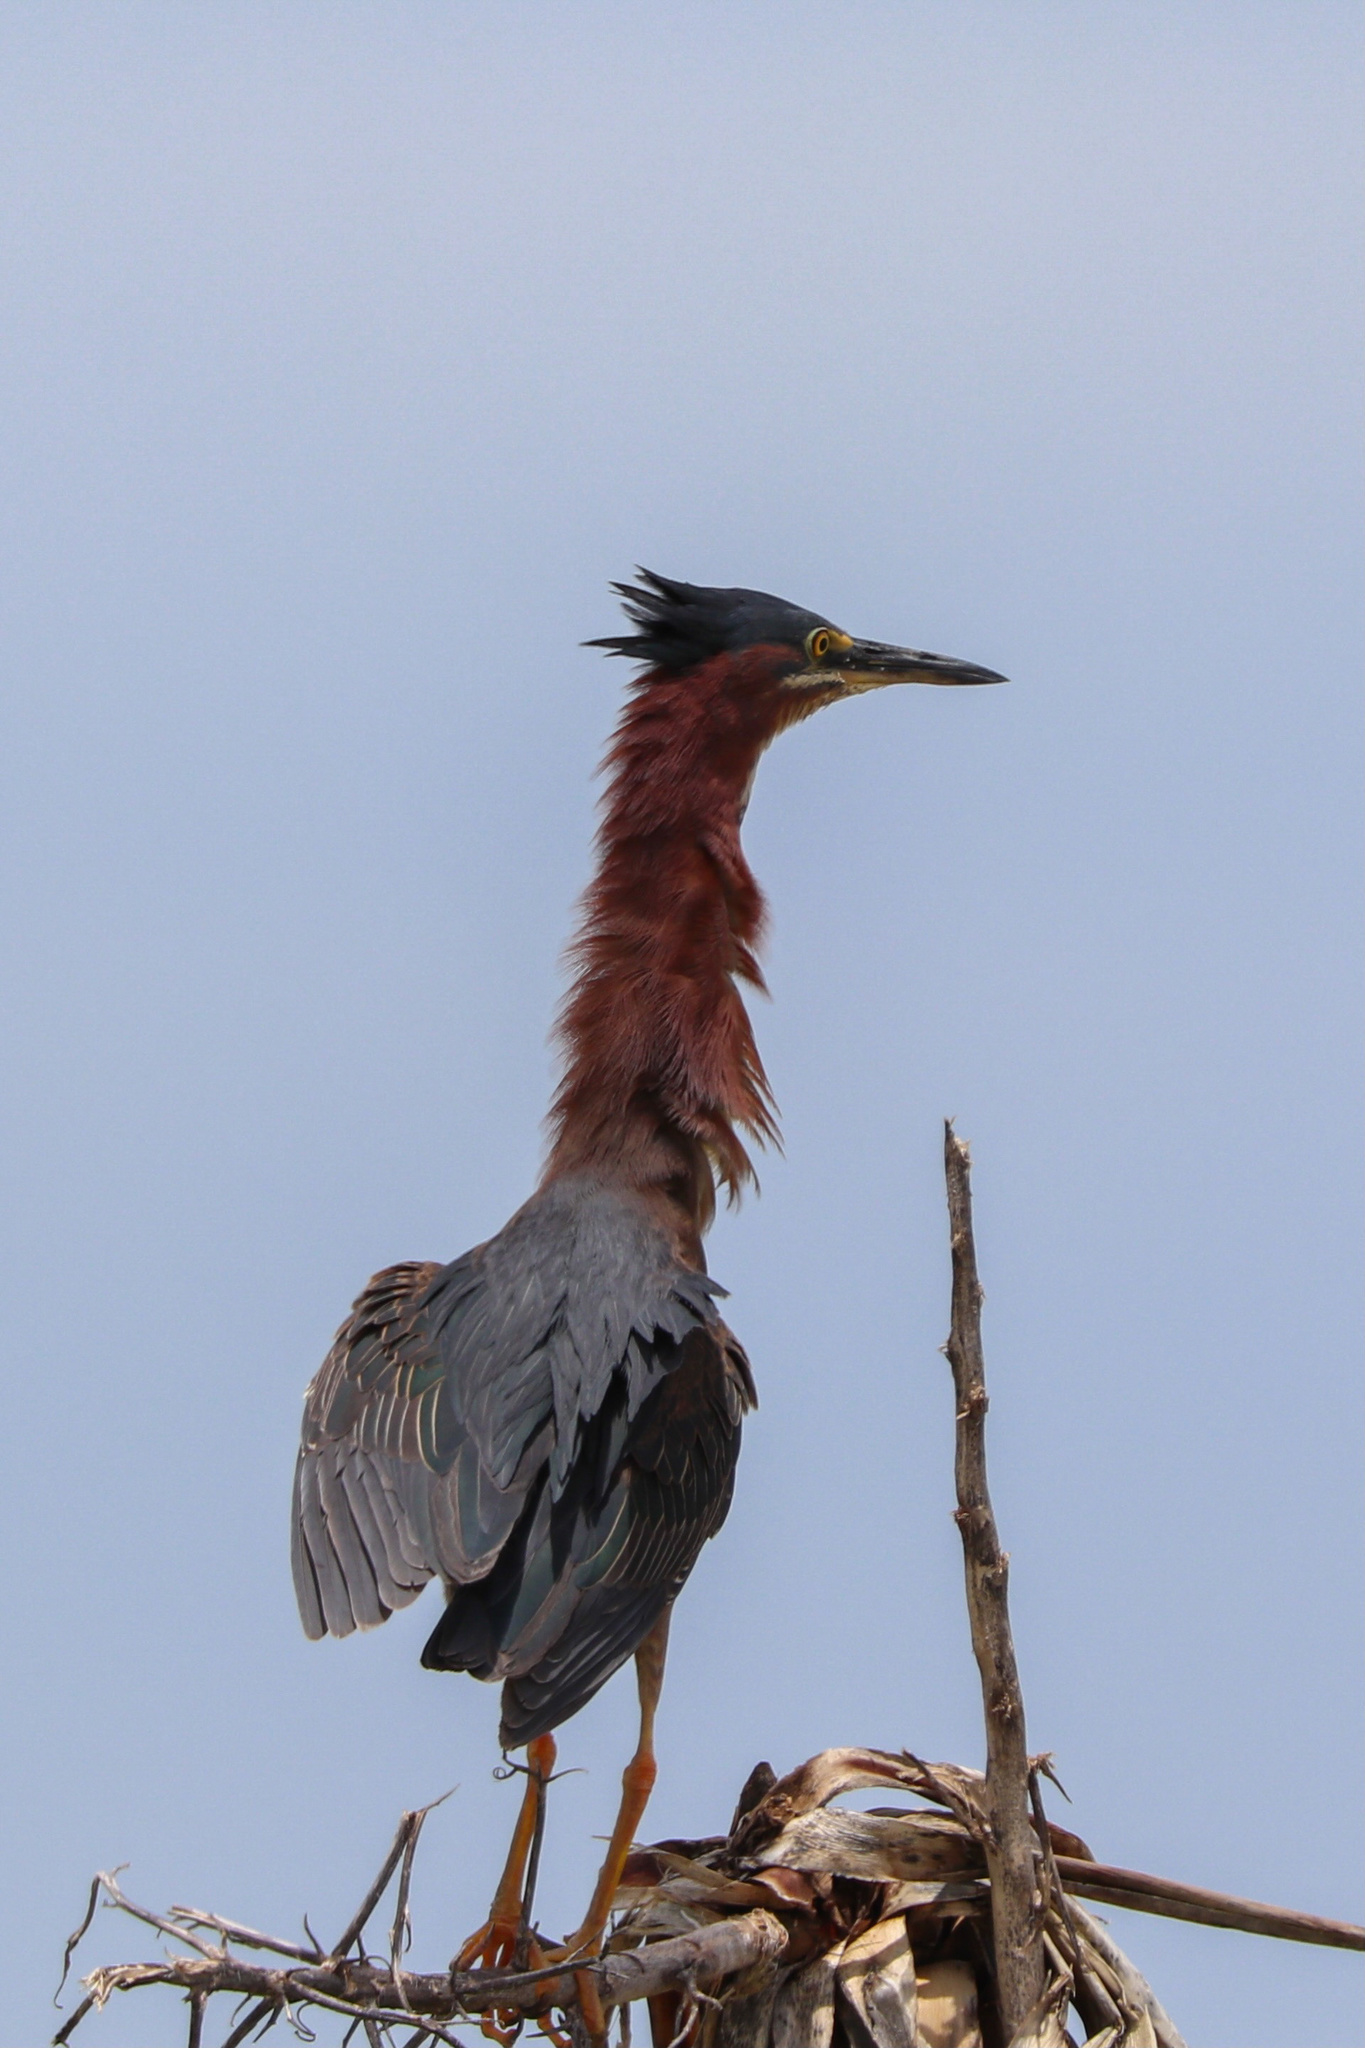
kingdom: Animalia
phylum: Chordata
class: Aves
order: Pelecaniformes
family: Ardeidae
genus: Butorides
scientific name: Butorides virescens
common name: Green heron
